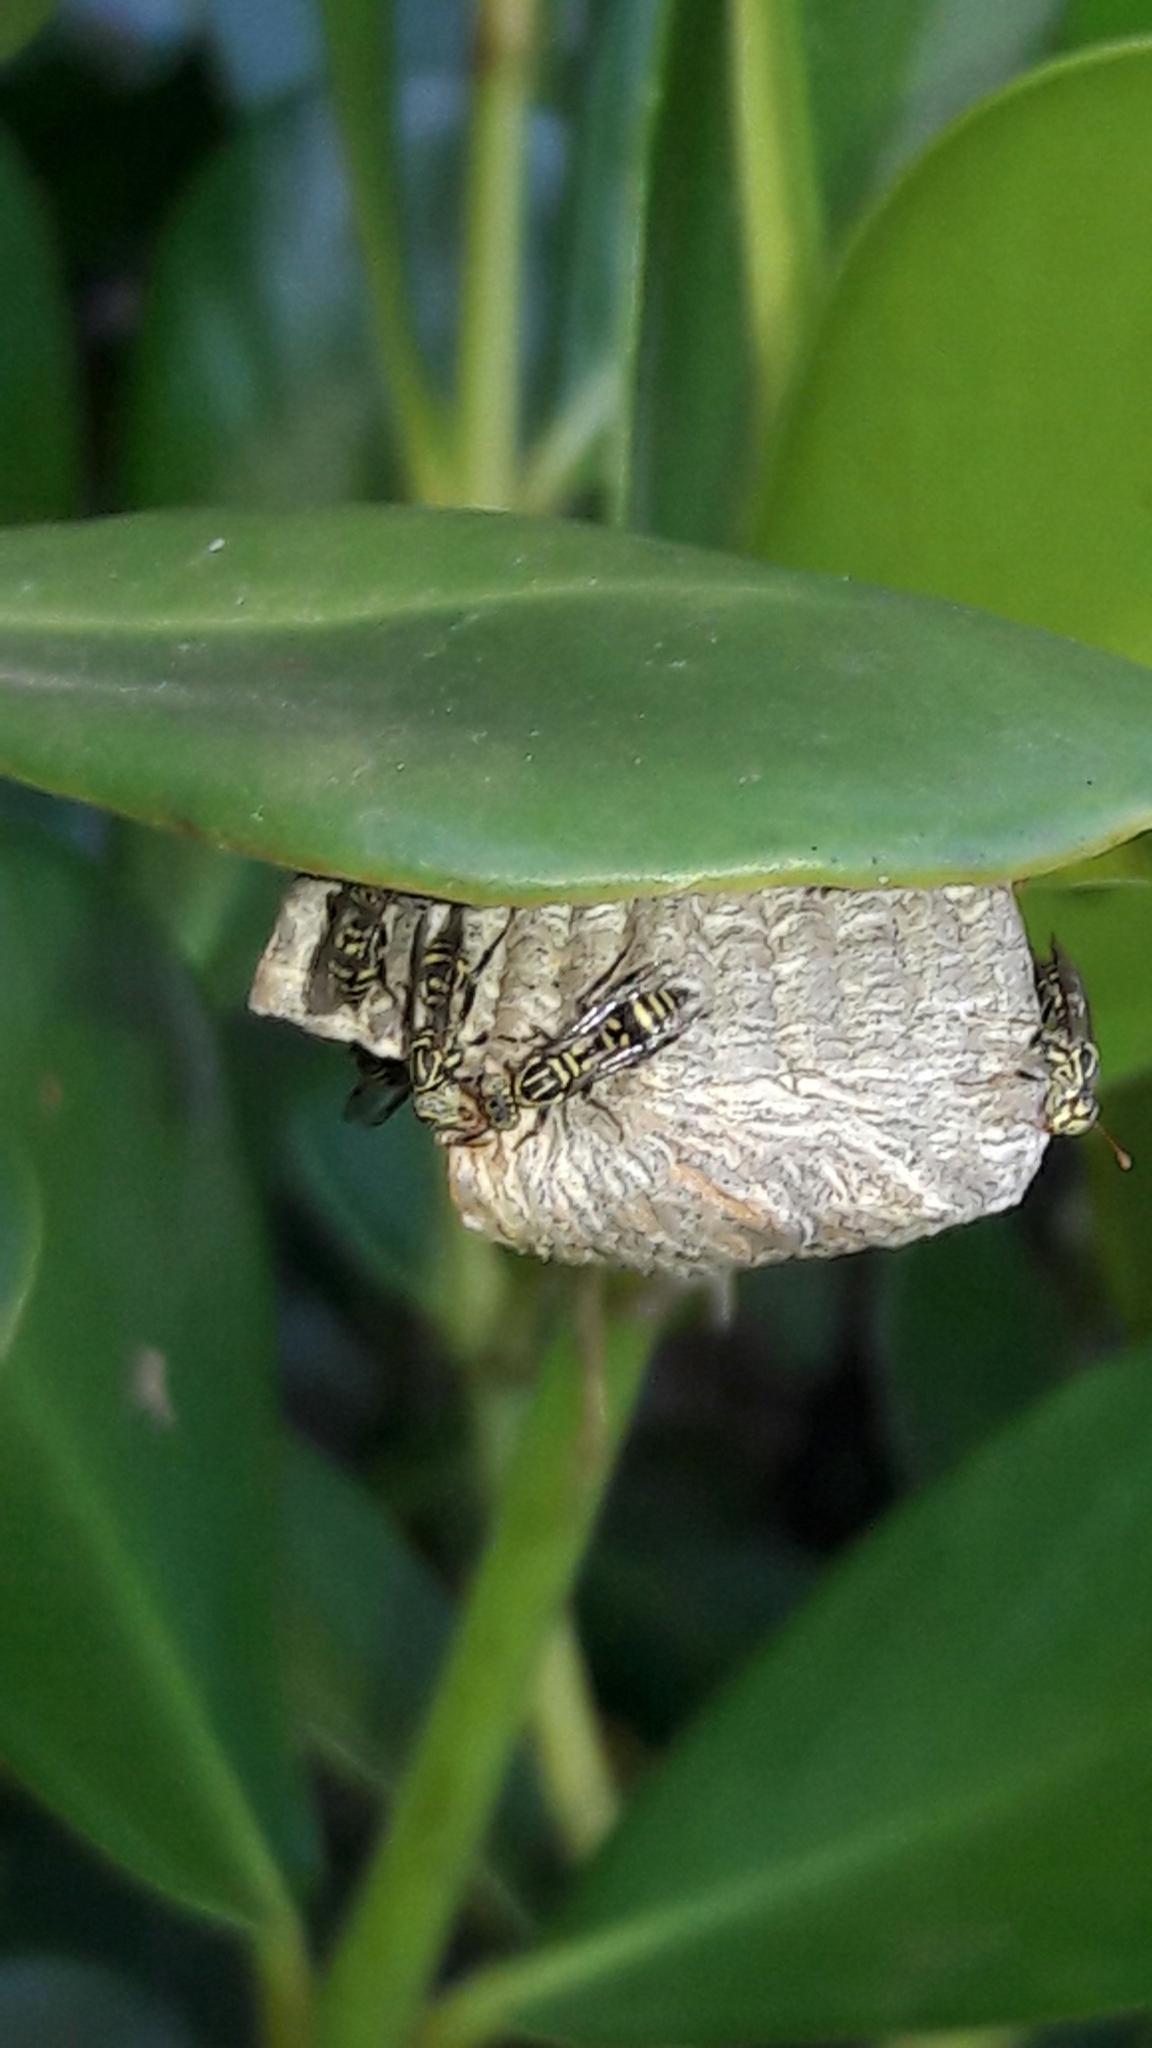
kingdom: Animalia
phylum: Arthropoda
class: Insecta
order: Hymenoptera
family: Vespidae
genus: Protopolybia
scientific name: Protopolybia exigua
